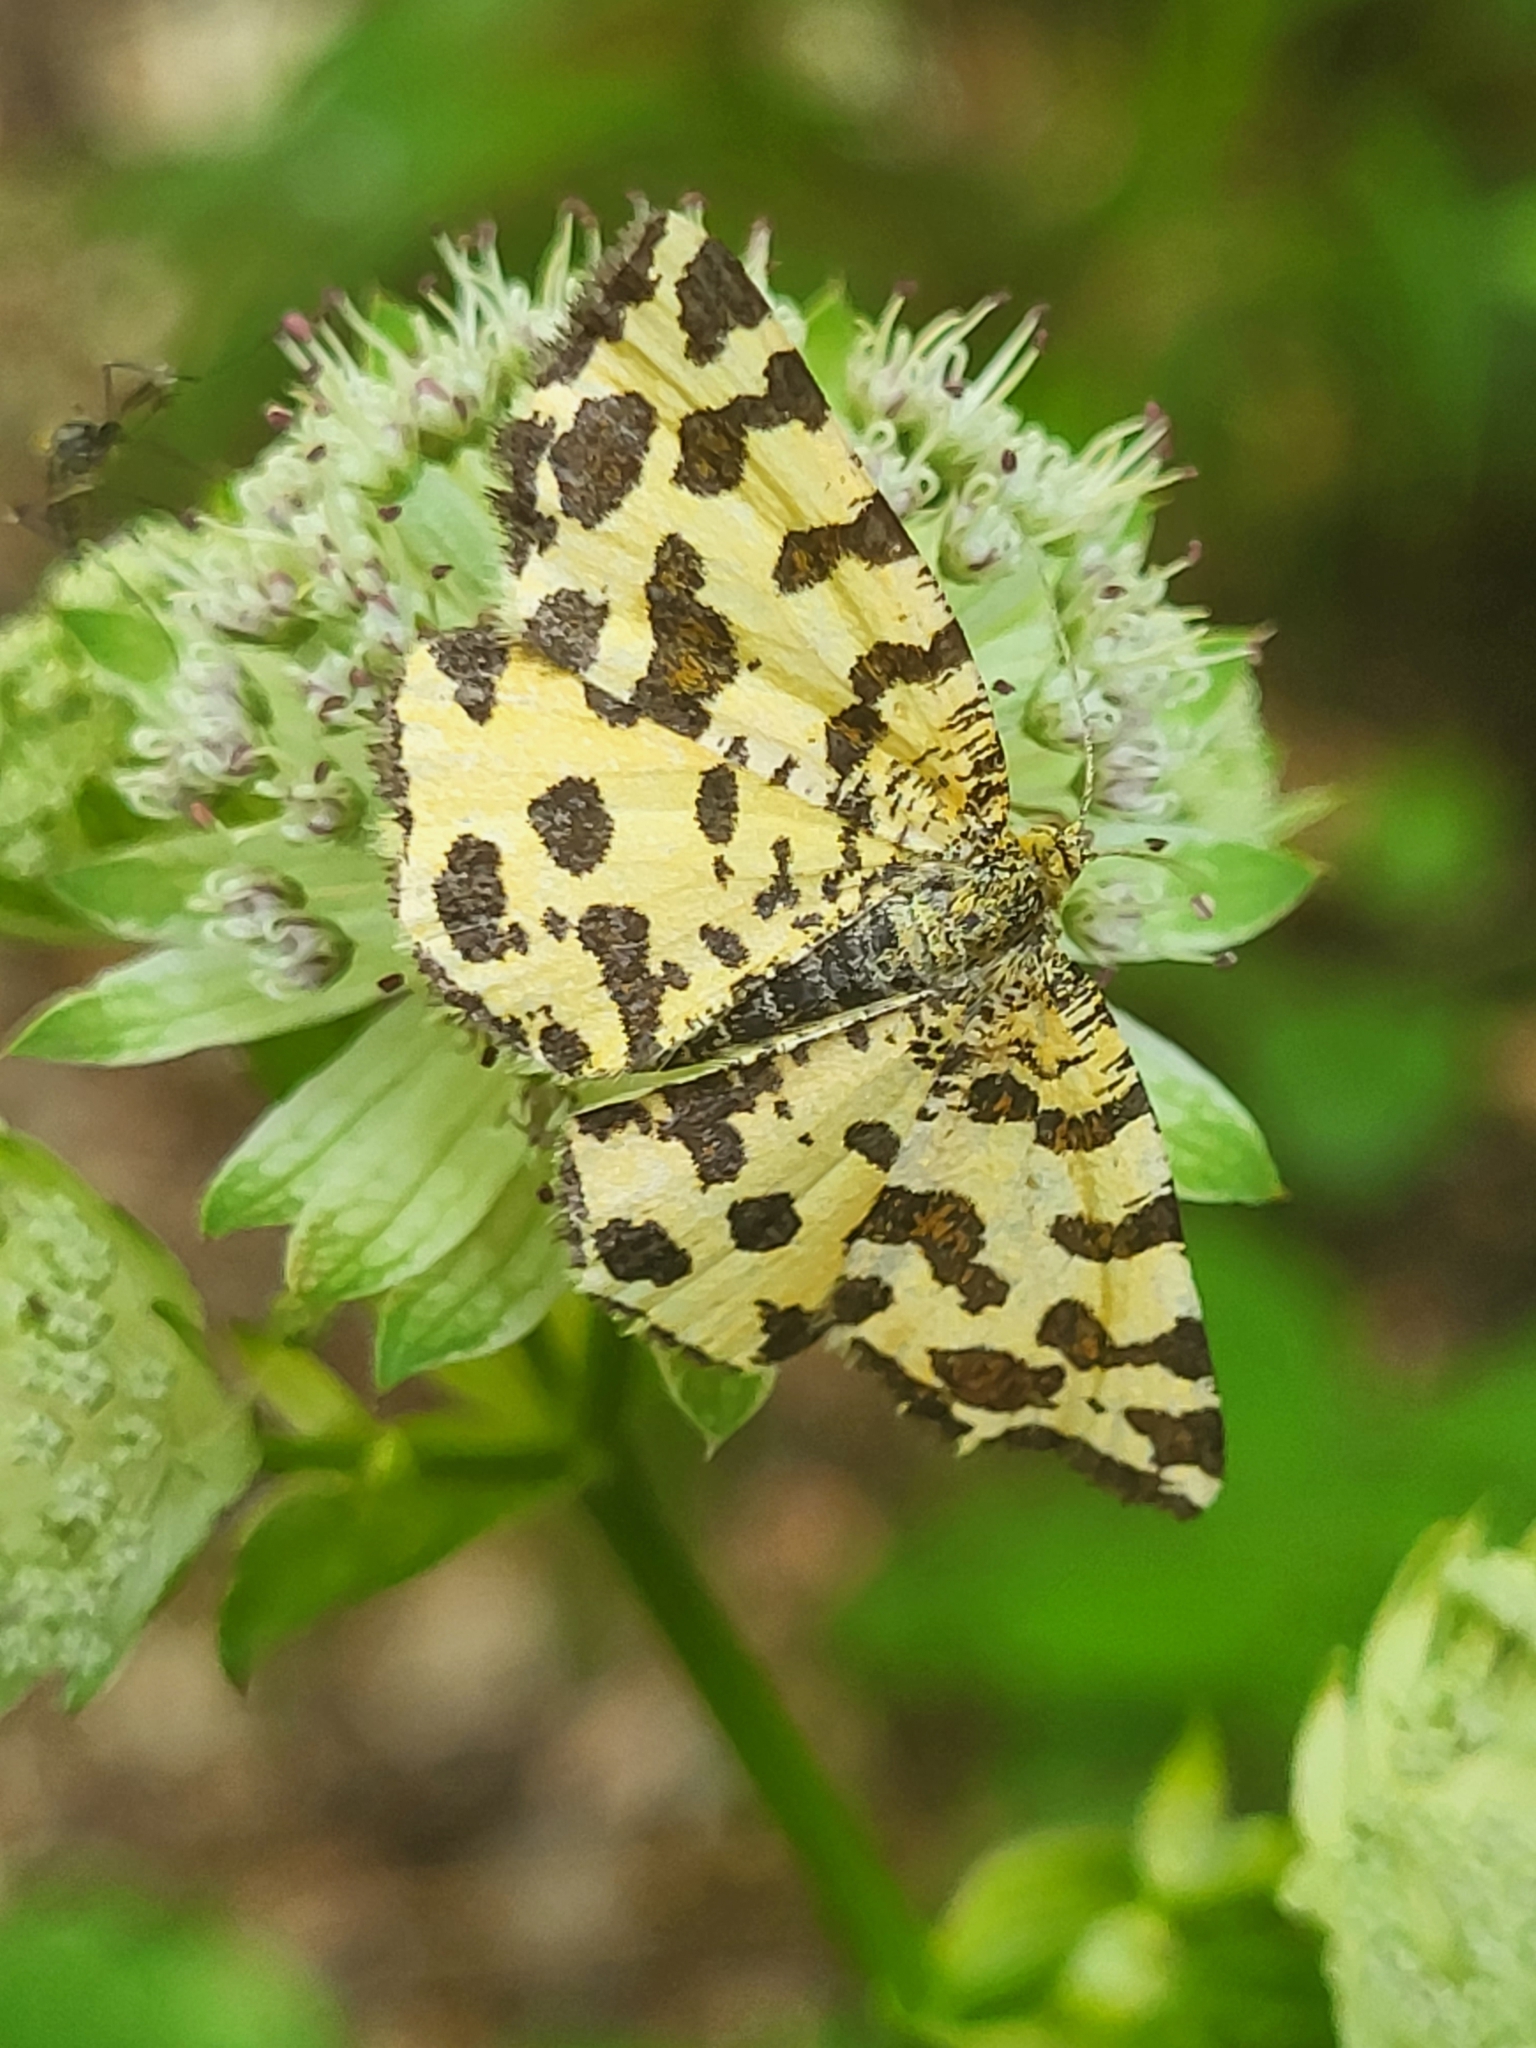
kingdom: Animalia
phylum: Arthropoda
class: Insecta
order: Lepidoptera
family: Geometridae
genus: Pseudopanthera
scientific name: Pseudopanthera macularia
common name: Speckled yellow
